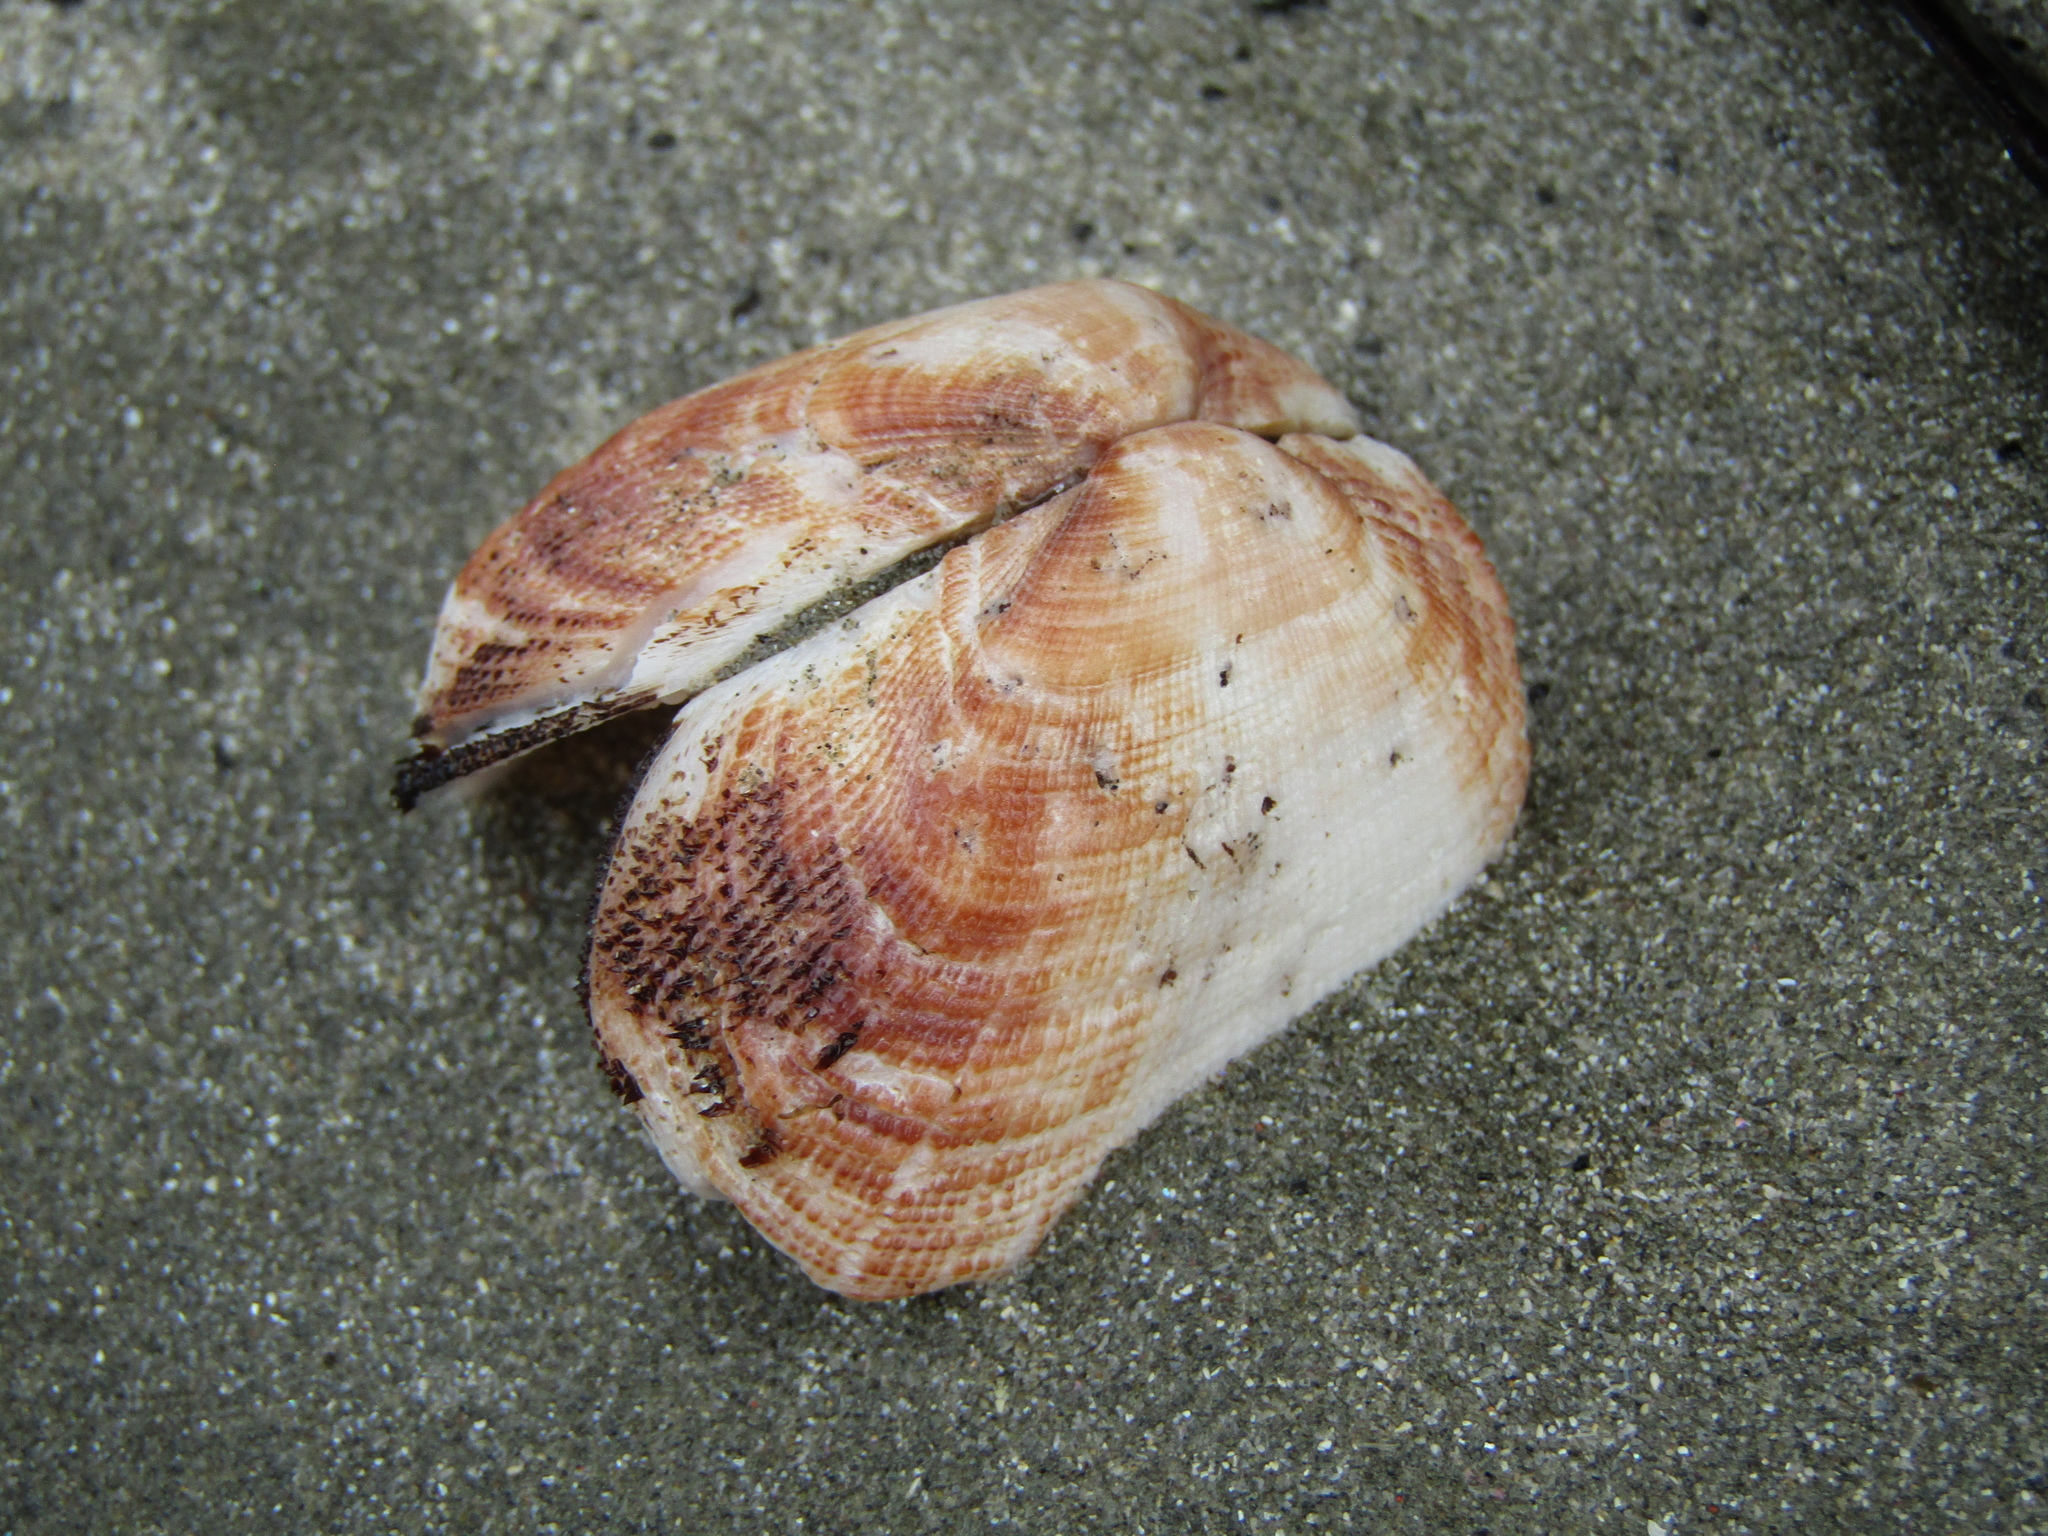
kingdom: Animalia
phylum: Mollusca
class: Bivalvia
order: Arcida
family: Arcidae
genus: Barbatia
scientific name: Barbatia novaezealandiae
